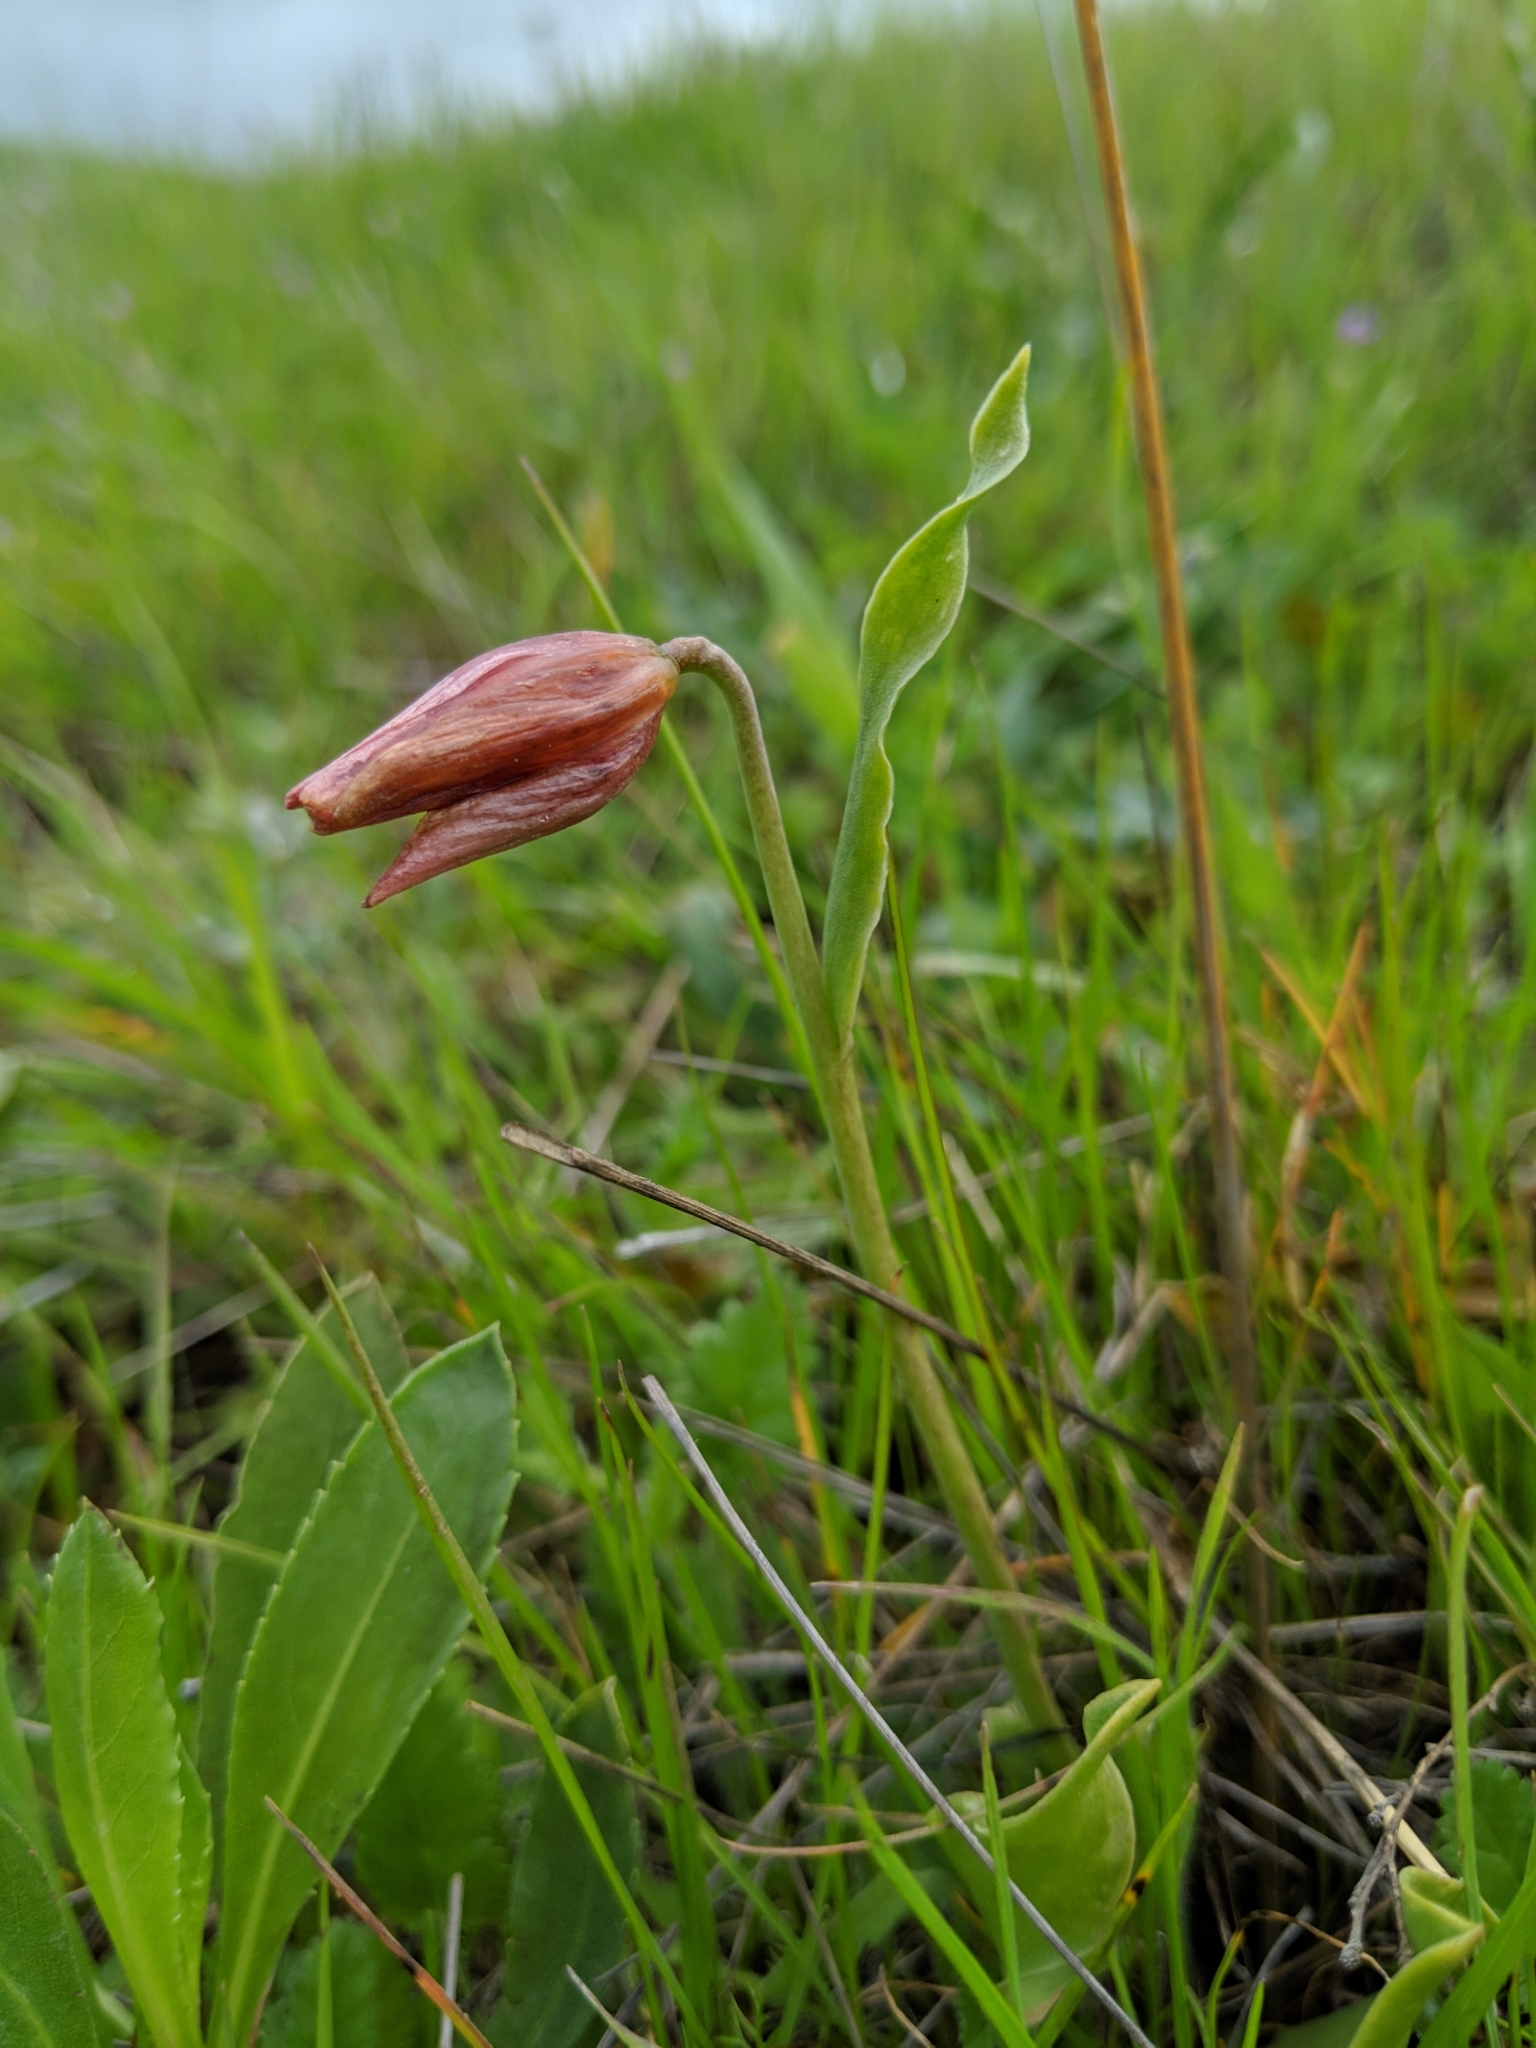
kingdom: Plantae
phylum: Tracheophyta
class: Liliopsida
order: Liliales
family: Liliaceae
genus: Fritillaria
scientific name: Fritillaria agrestis
